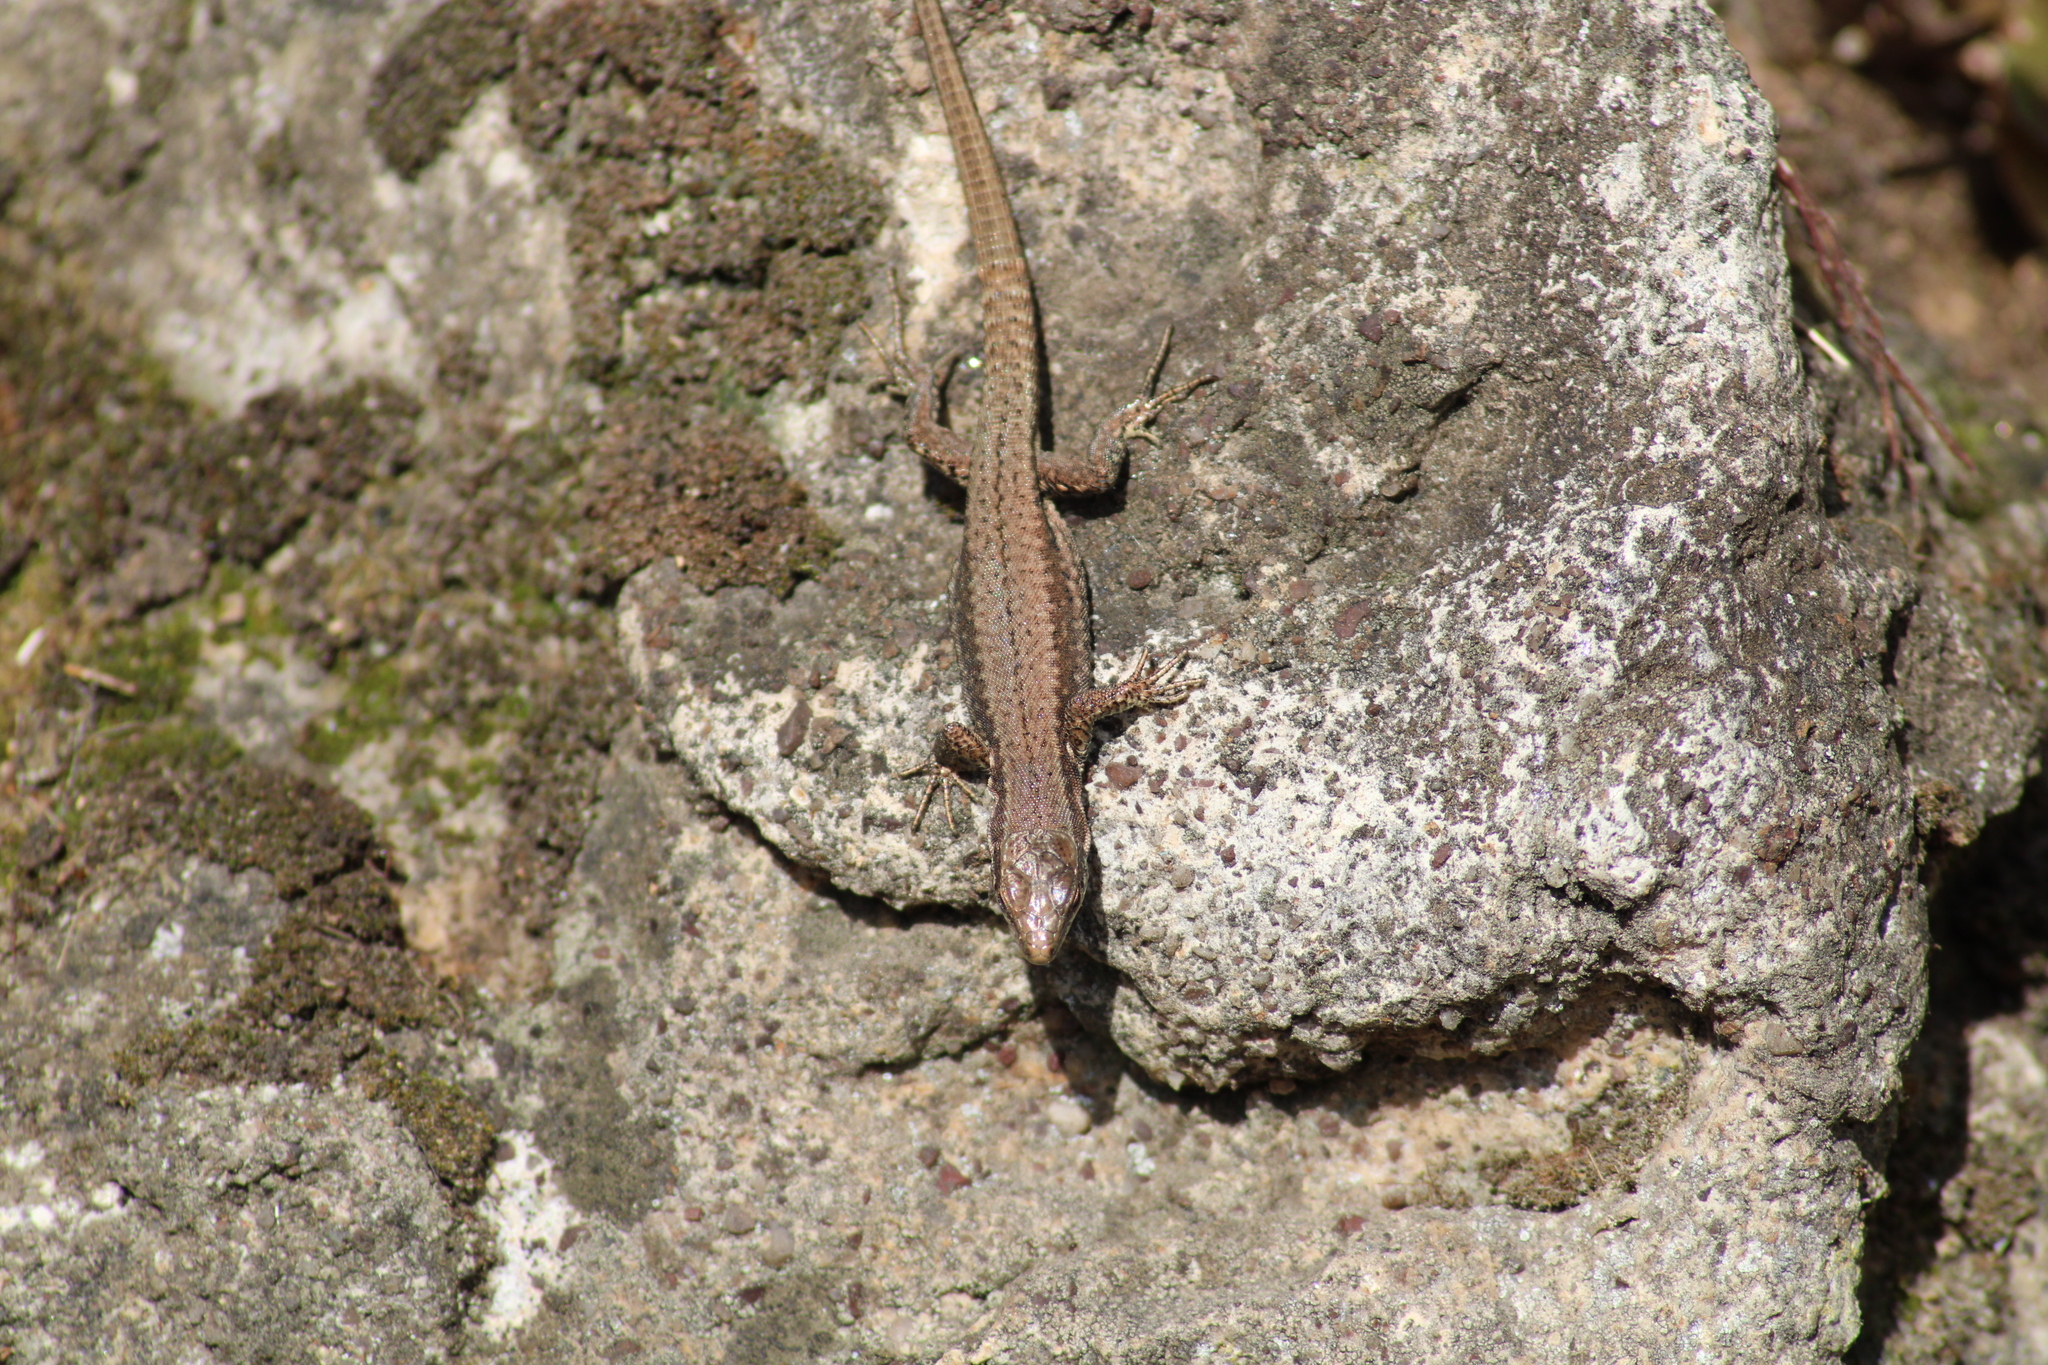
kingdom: Animalia
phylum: Chordata
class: Squamata
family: Lacertidae
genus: Podarcis
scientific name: Podarcis muralis
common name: Common wall lizard
